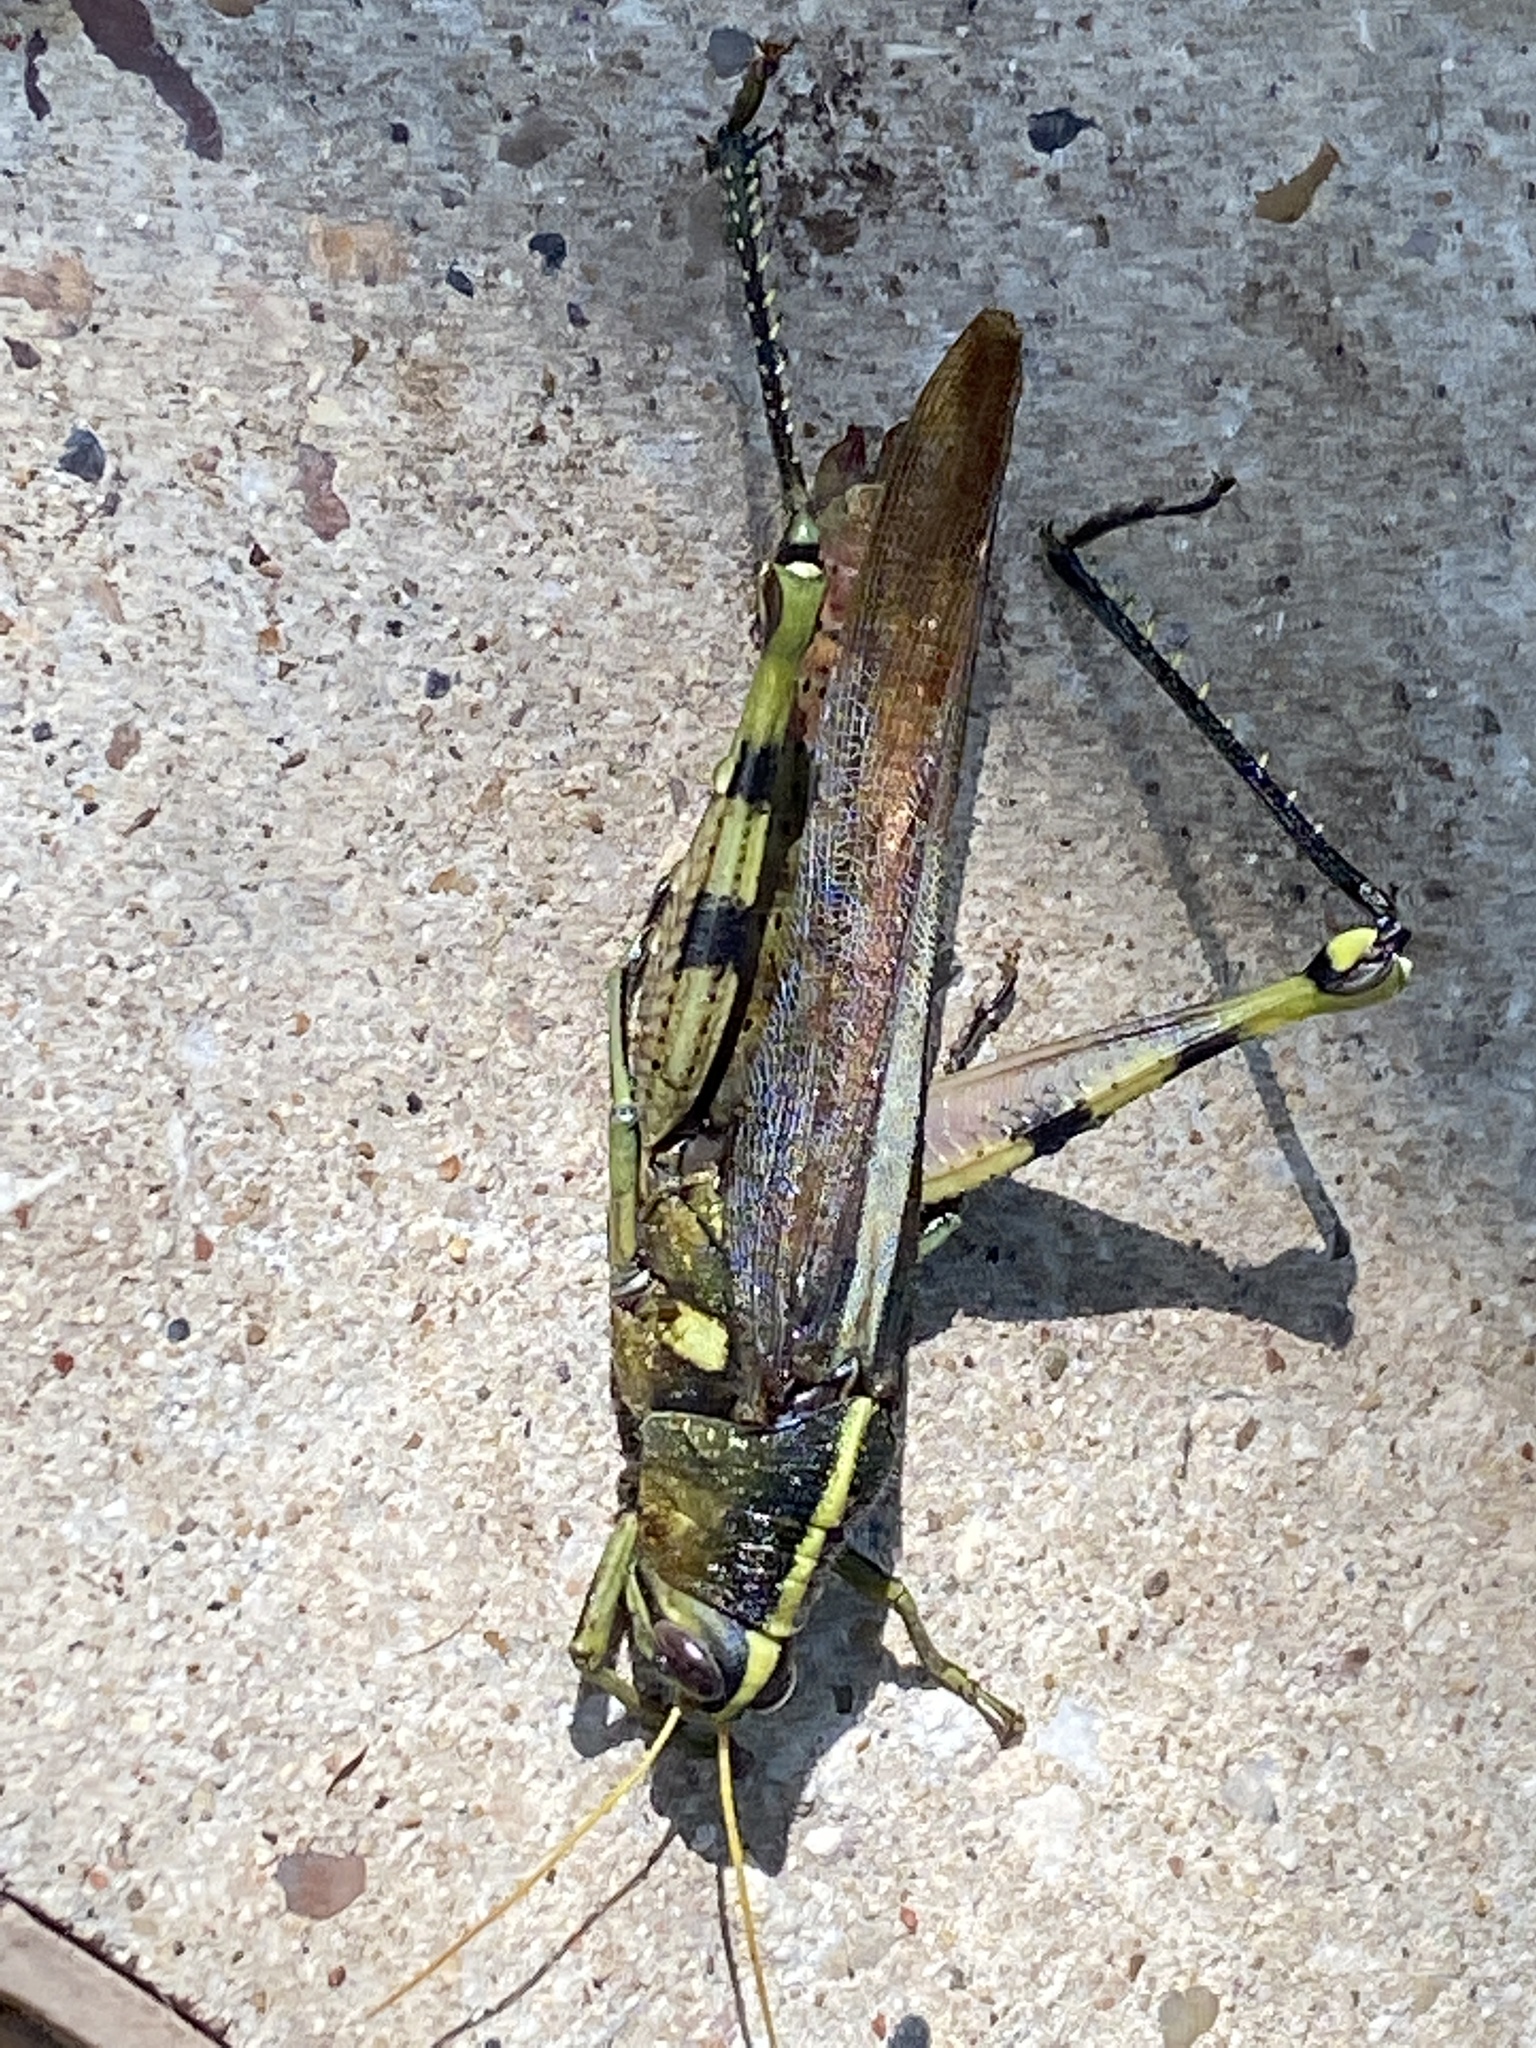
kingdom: Animalia
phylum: Arthropoda
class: Insecta
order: Orthoptera
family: Acrididae
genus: Schistocerca
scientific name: Schistocerca obscura
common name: Obscure bird grasshopper
